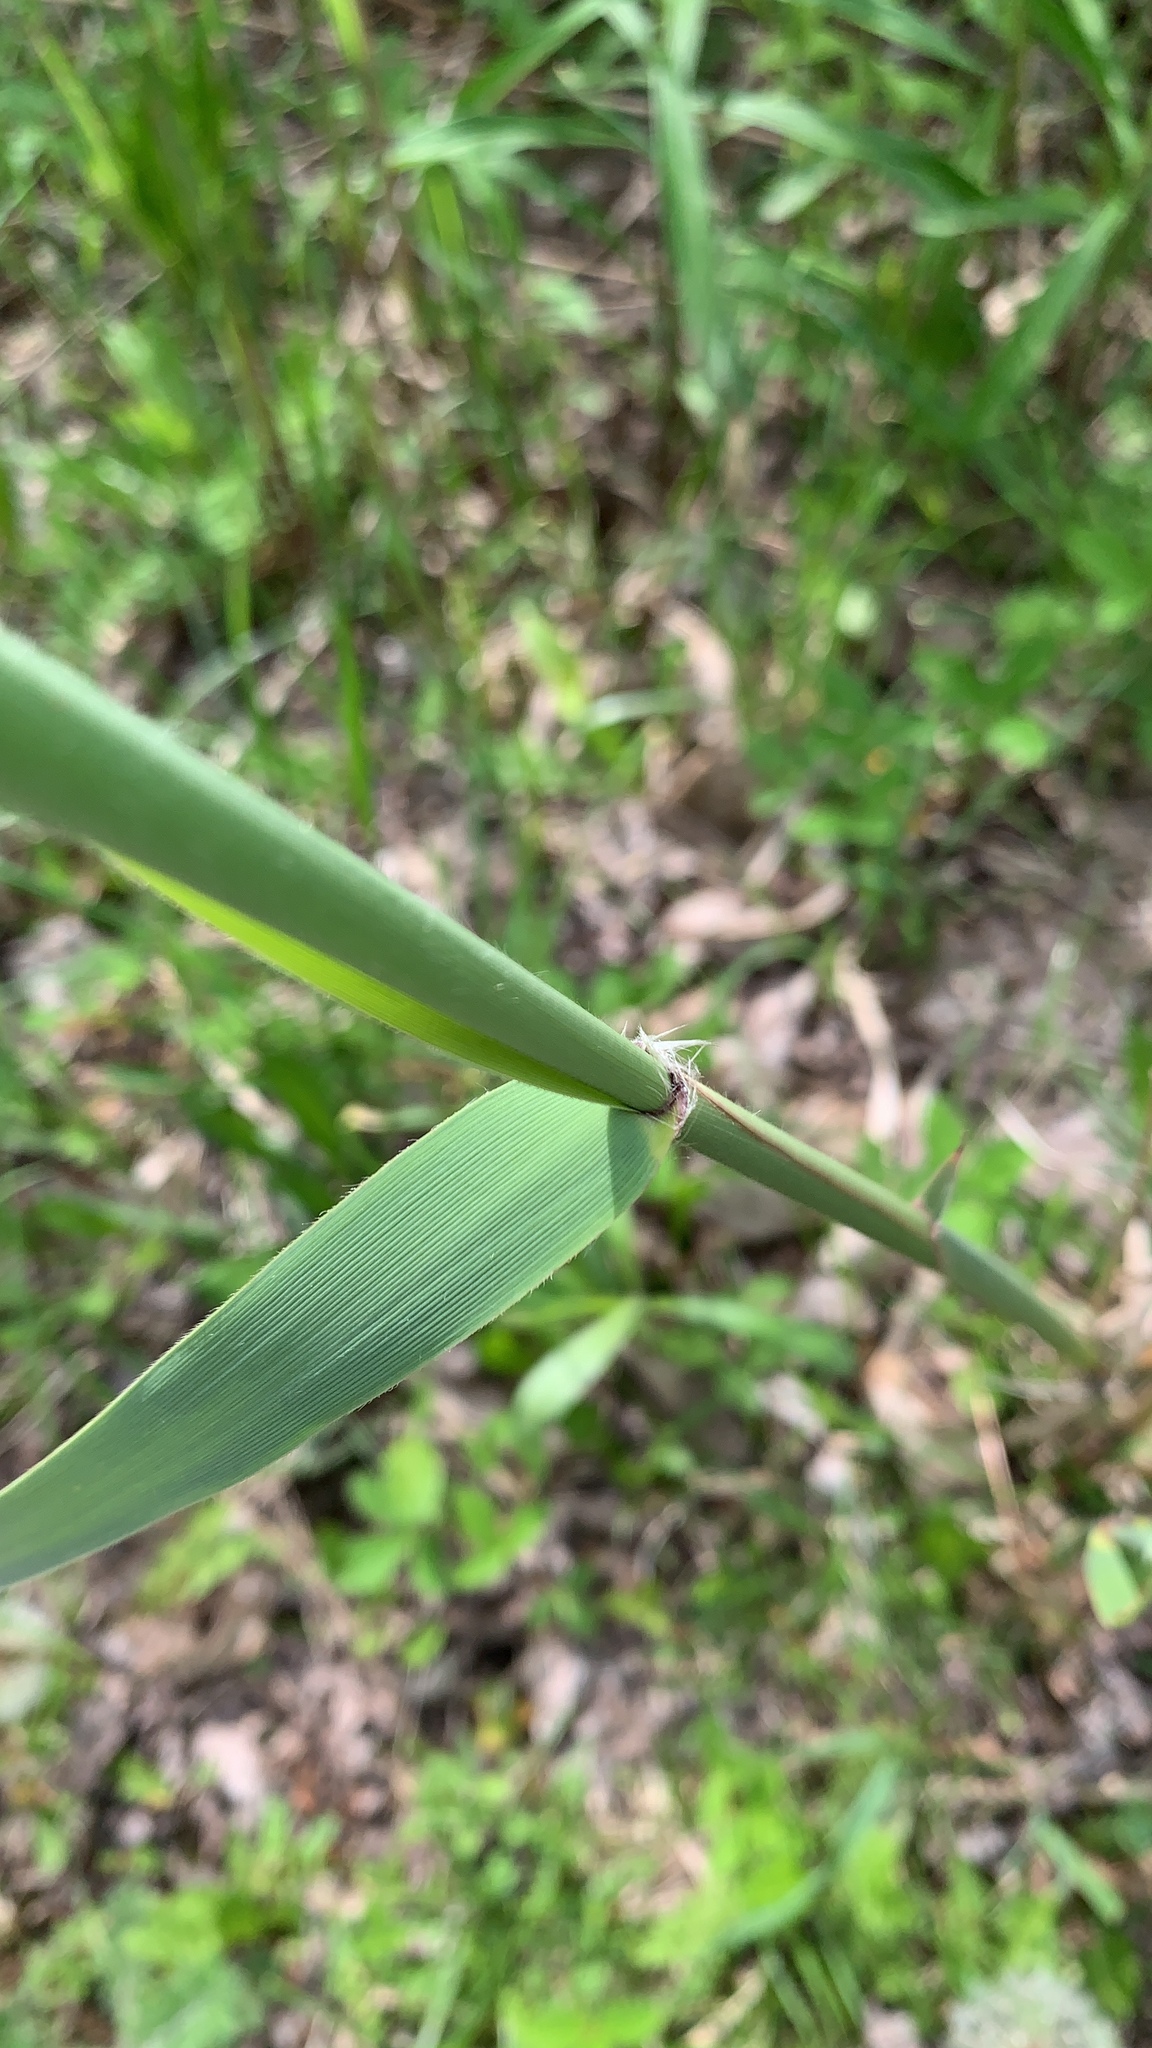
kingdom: Plantae
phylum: Tracheophyta
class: Liliopsida
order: Poales
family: Poaceae
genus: Phragmites
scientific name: Phragmites australis
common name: Common reed
